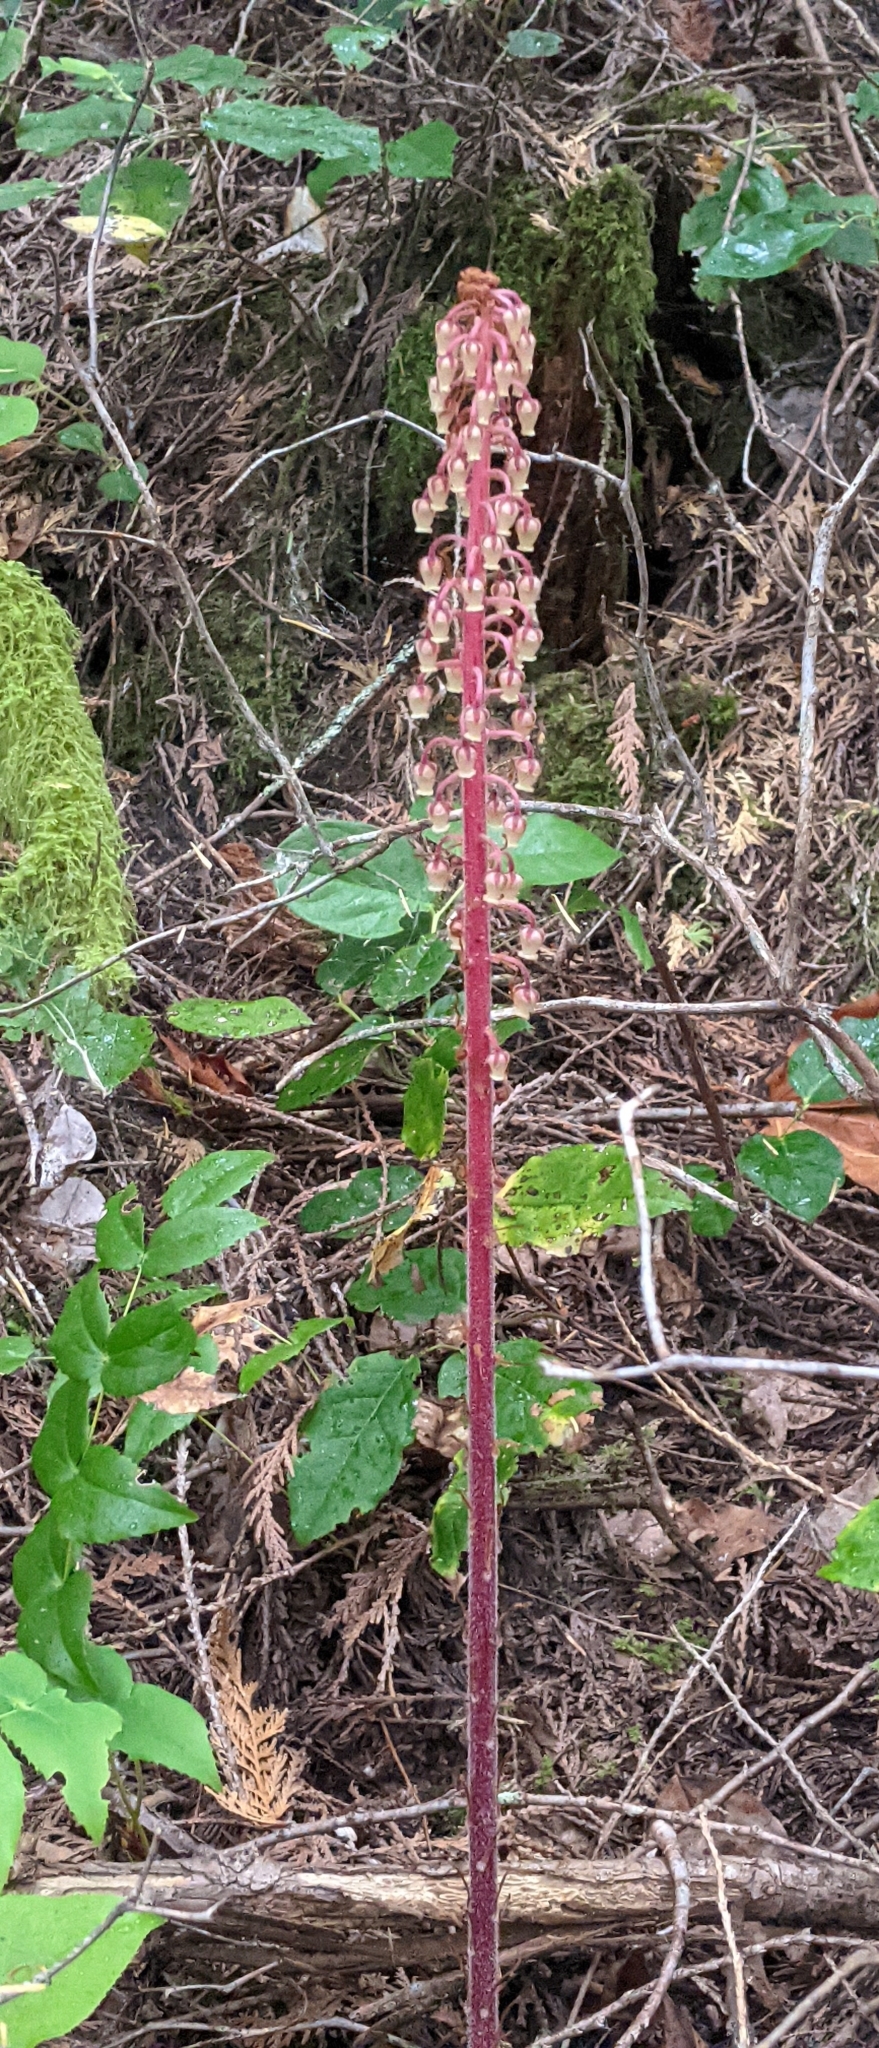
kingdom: Plantae
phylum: Tracheophyta
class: Magnoliopsida
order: Ericales
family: Ericaceae
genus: Pterospora
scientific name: Pterospora andromedea
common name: Giant bird's-nest
